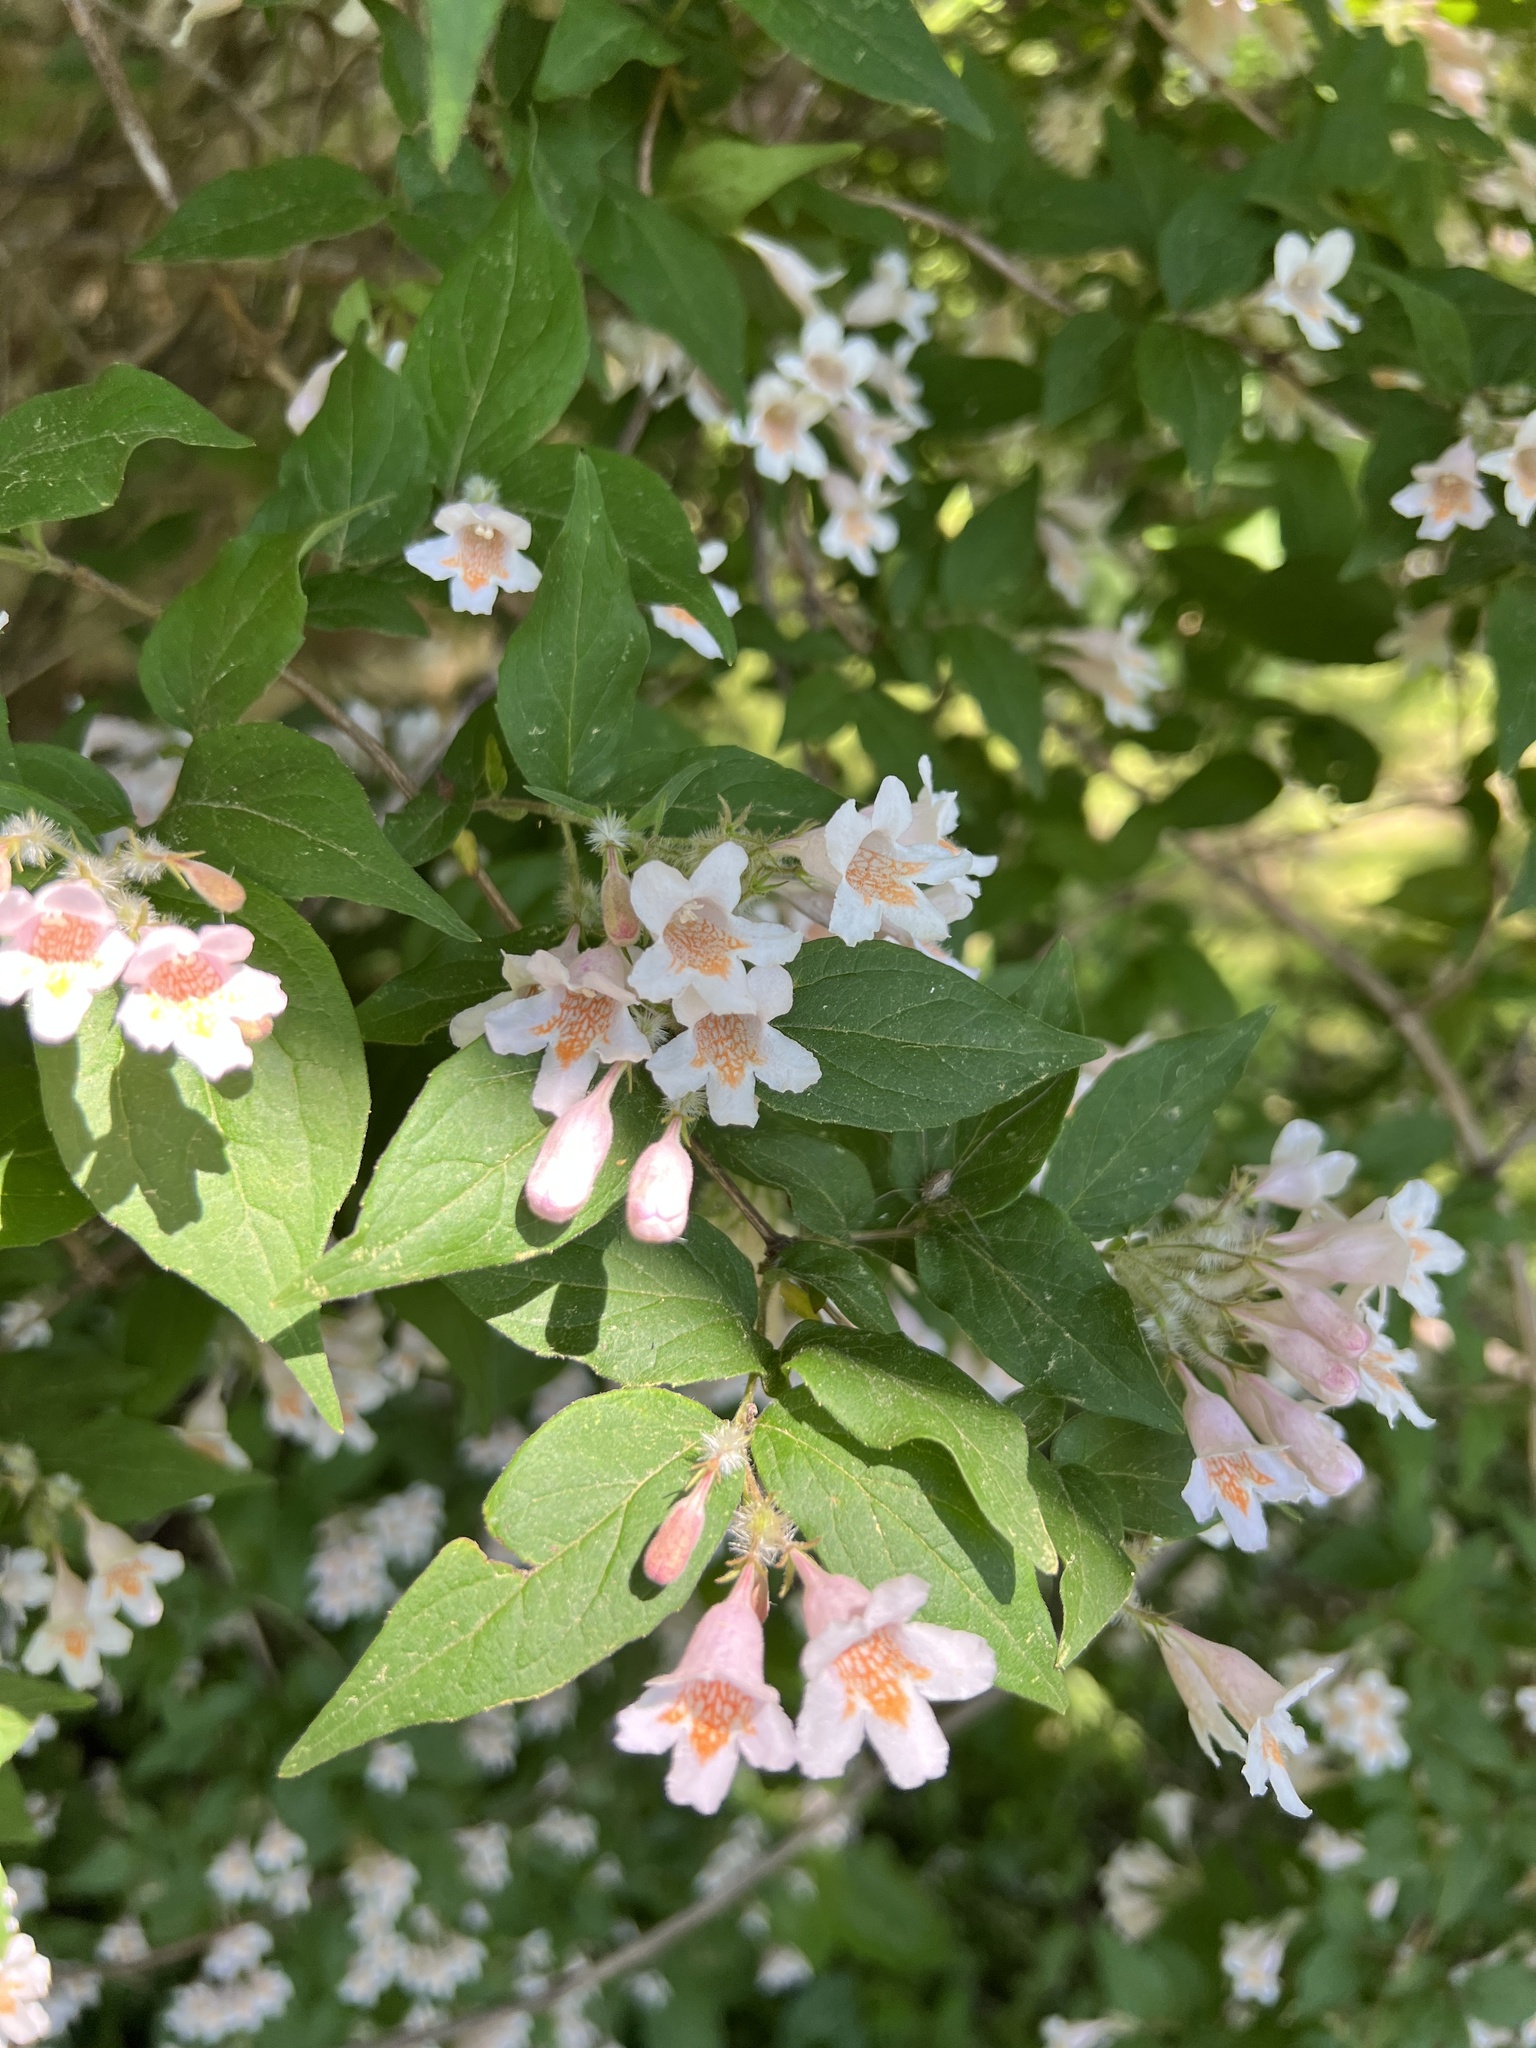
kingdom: Plantae
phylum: Tracheophyta
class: Magnoliopsida
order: Dipsacales
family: Caprifoliaceae
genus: Kolkwitzia
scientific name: Kolkwitzia amabilis
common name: Beautybush
